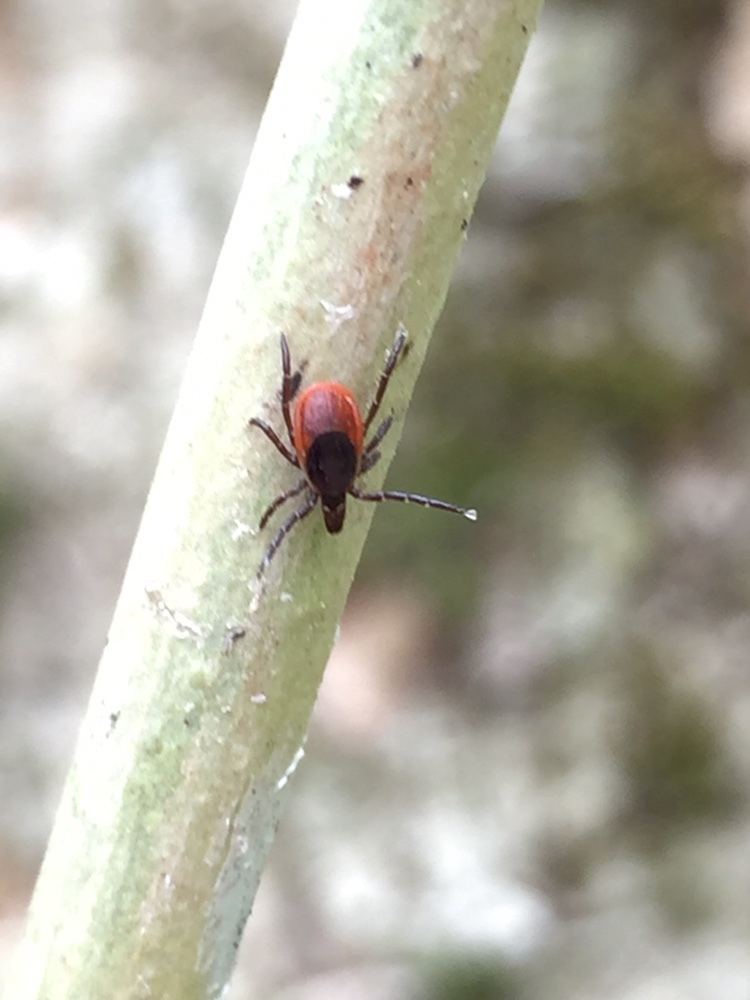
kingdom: Animalia
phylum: Arthropoda
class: Arachnida
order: Ixodida
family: Ixodidae
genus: Ixodes
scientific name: Ixodes scapularis
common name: Black legged tick
